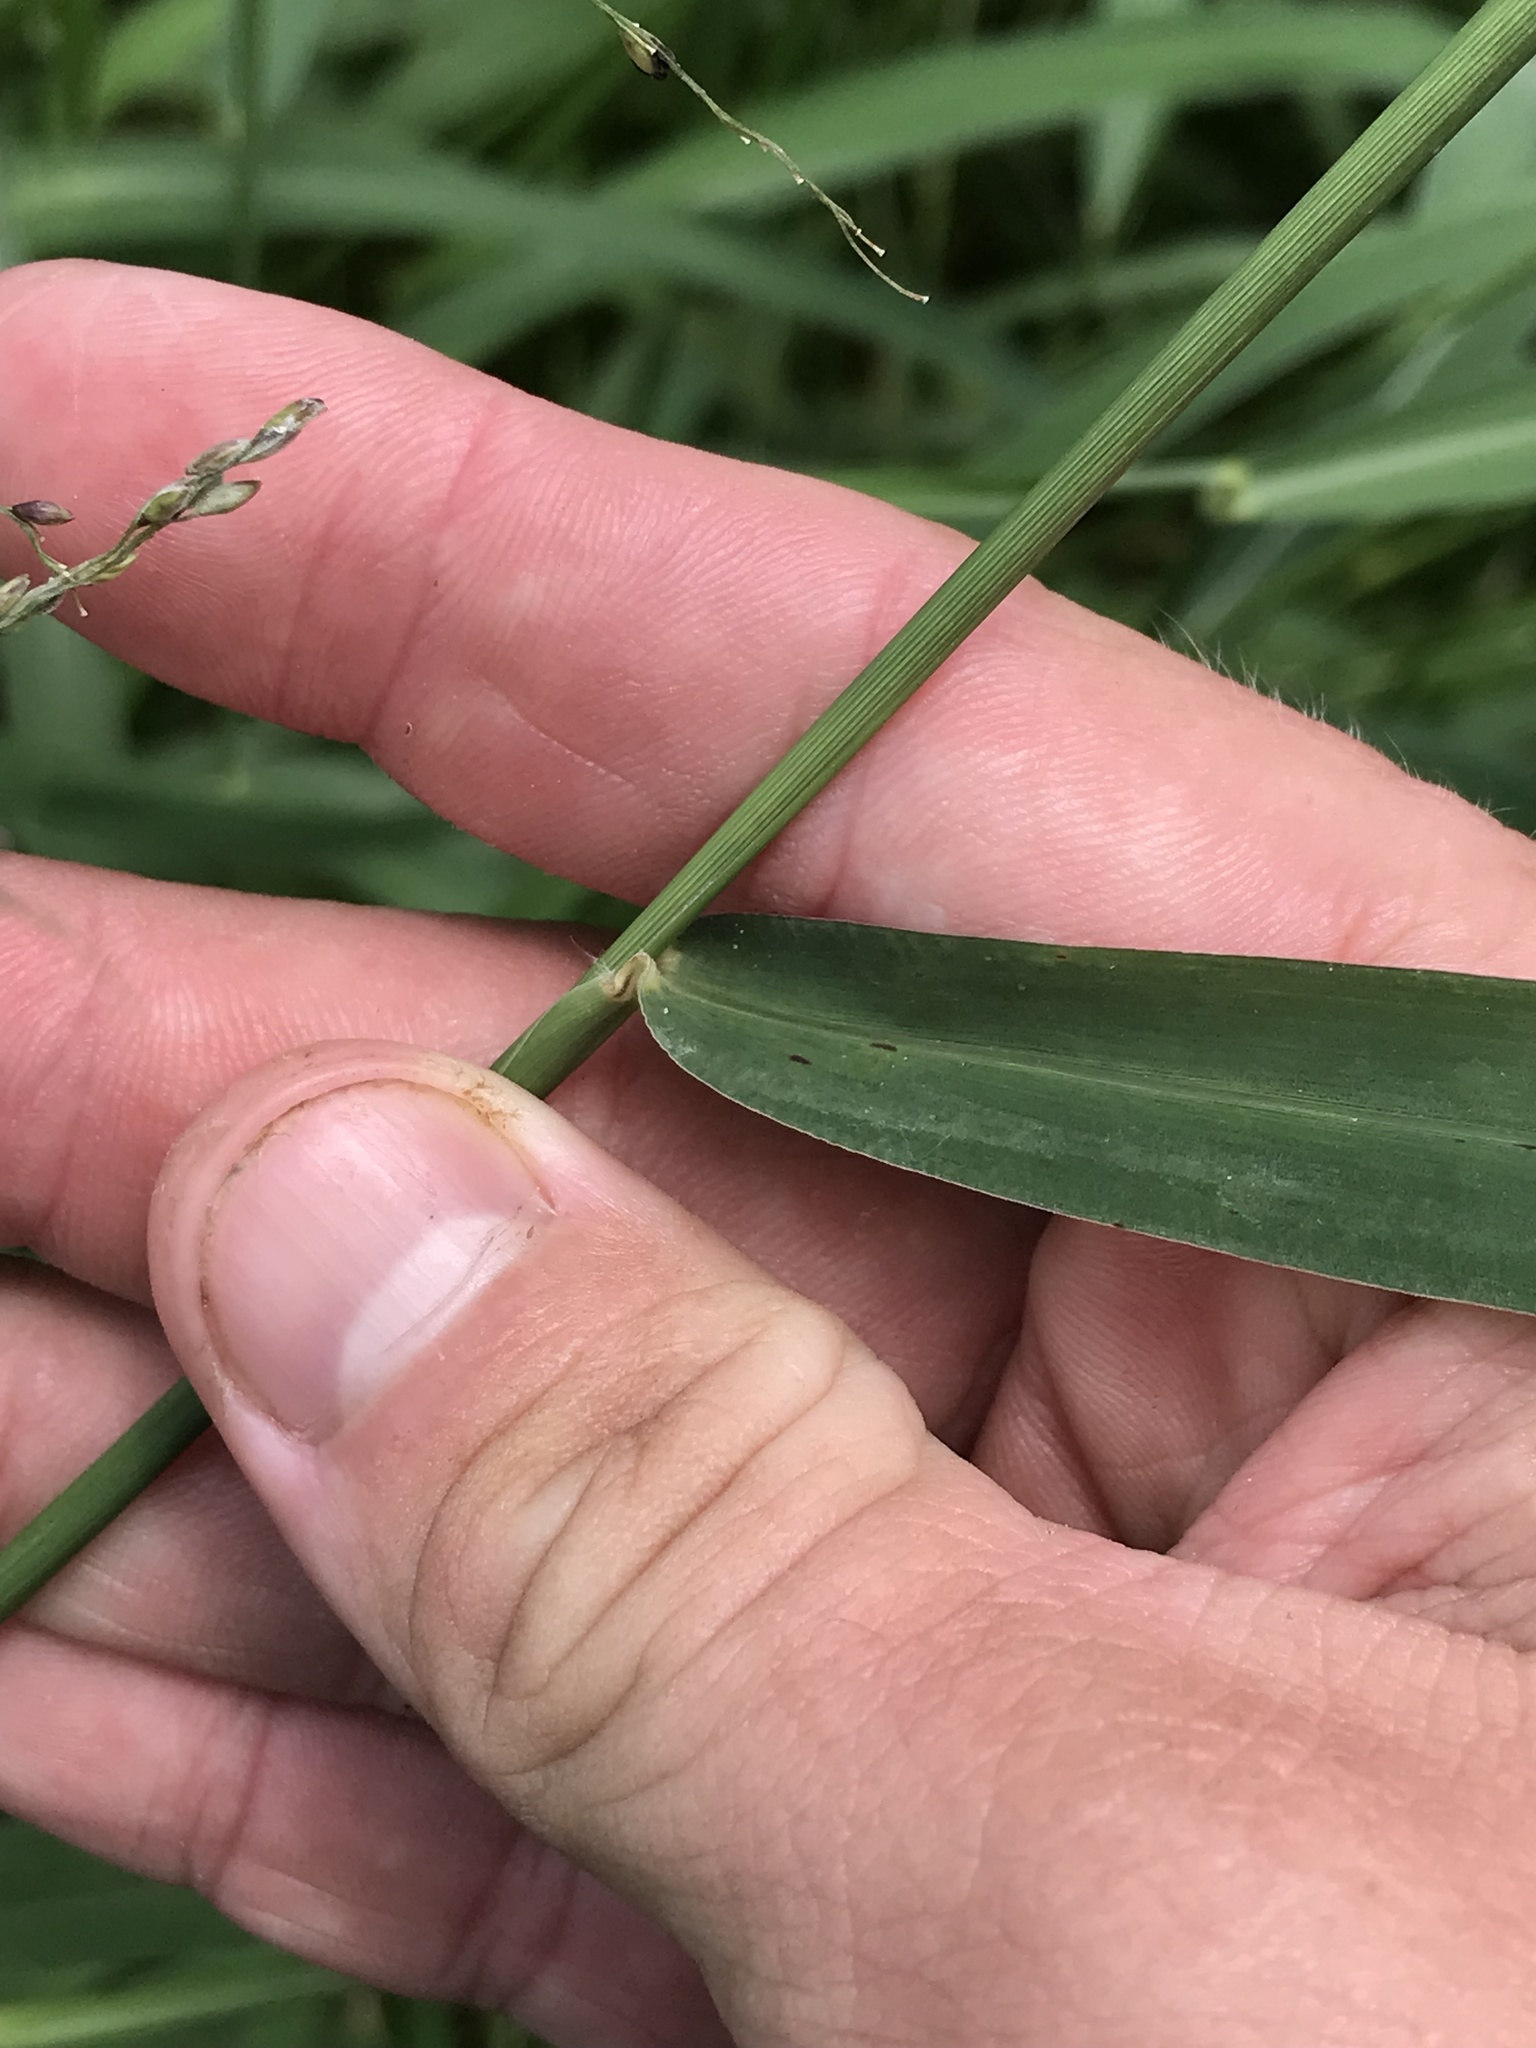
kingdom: Plantae
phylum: Tracheophyta
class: Liliopsida
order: Poales
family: Poaceae
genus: Megathyrsus
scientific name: Megathyrsus maximus
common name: Guineagrass
